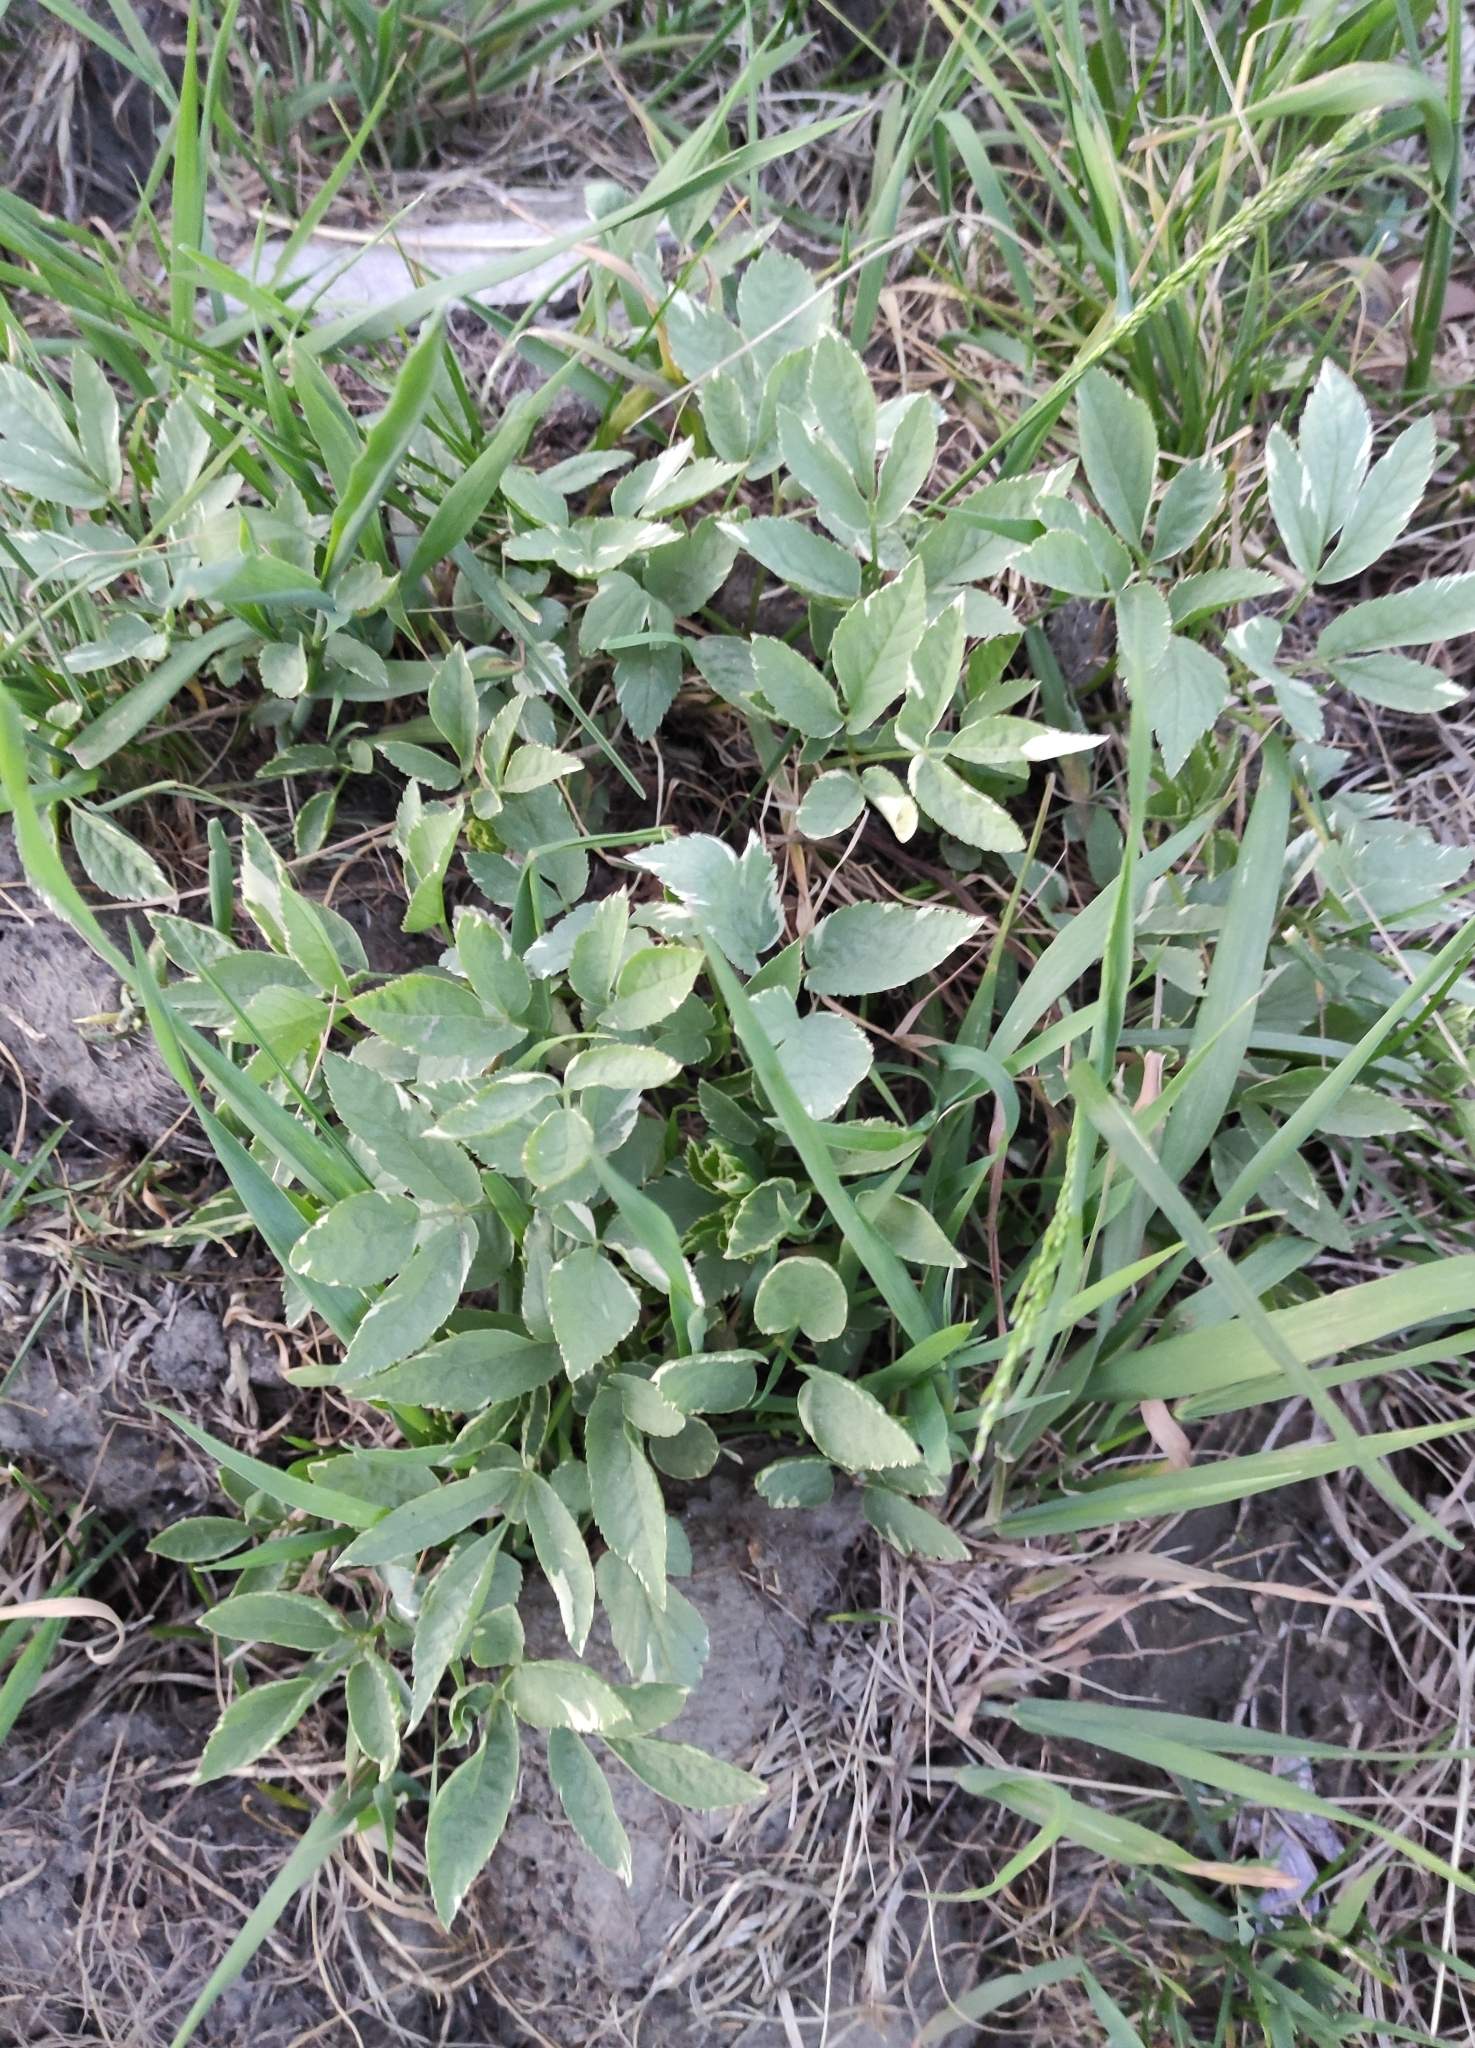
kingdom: Plantae
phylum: Tracheophyta
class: Magnoliopsida
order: Apiales
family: Apiaceae
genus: Aegopodium
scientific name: Aegopodium podagraria
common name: Ground-elder
